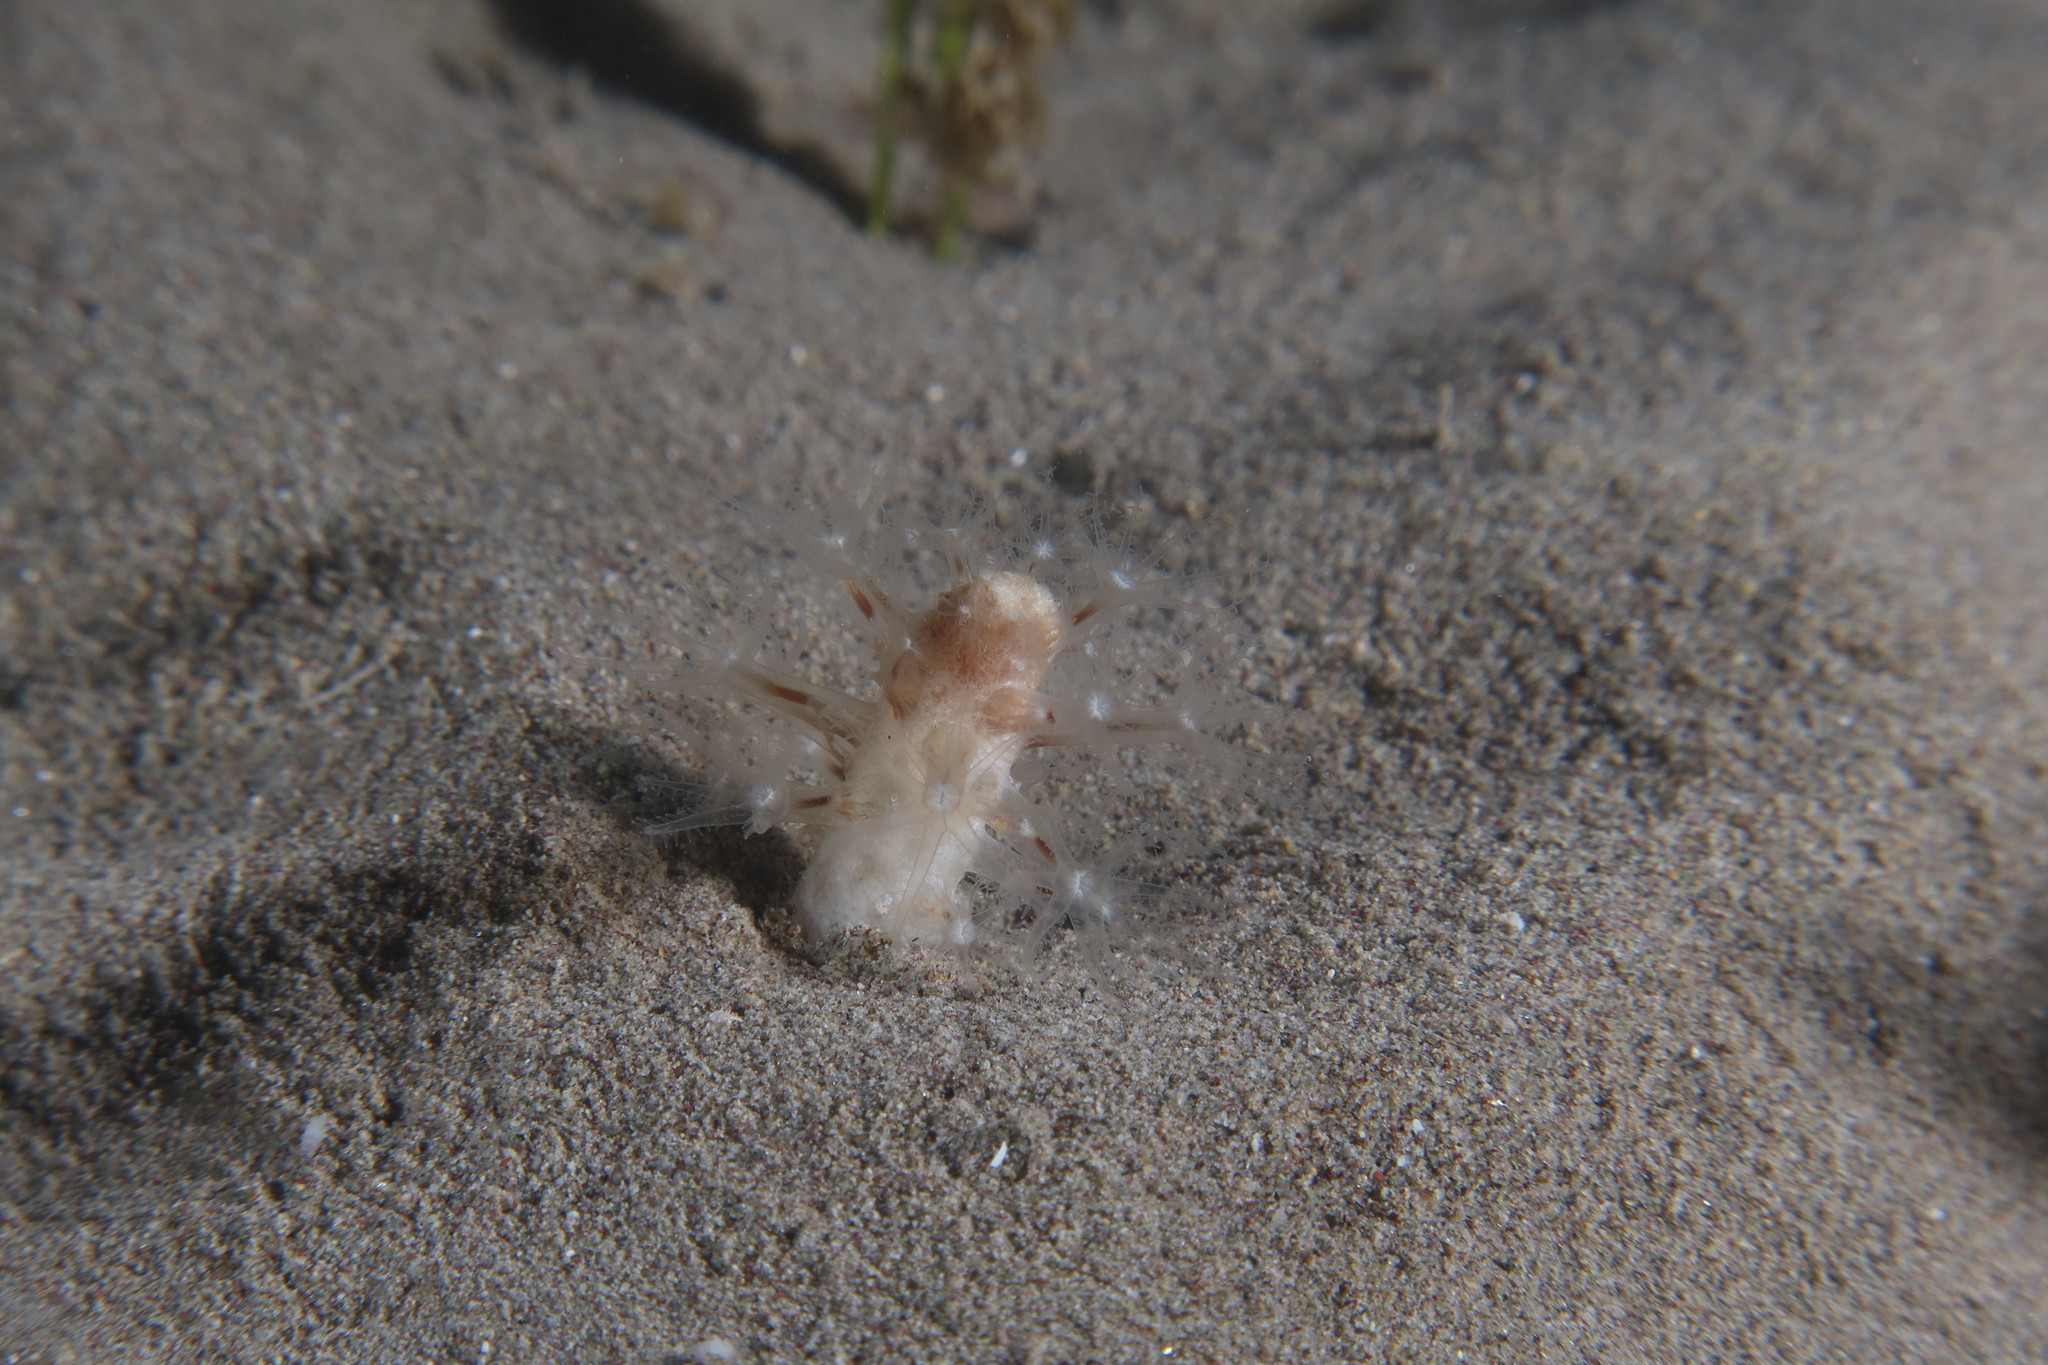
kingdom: Animalia
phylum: Cnidaria
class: Anthozoa
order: Scleralcyonacea
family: Veretillidae
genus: Cavernularia
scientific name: Cavernularia pusilla
